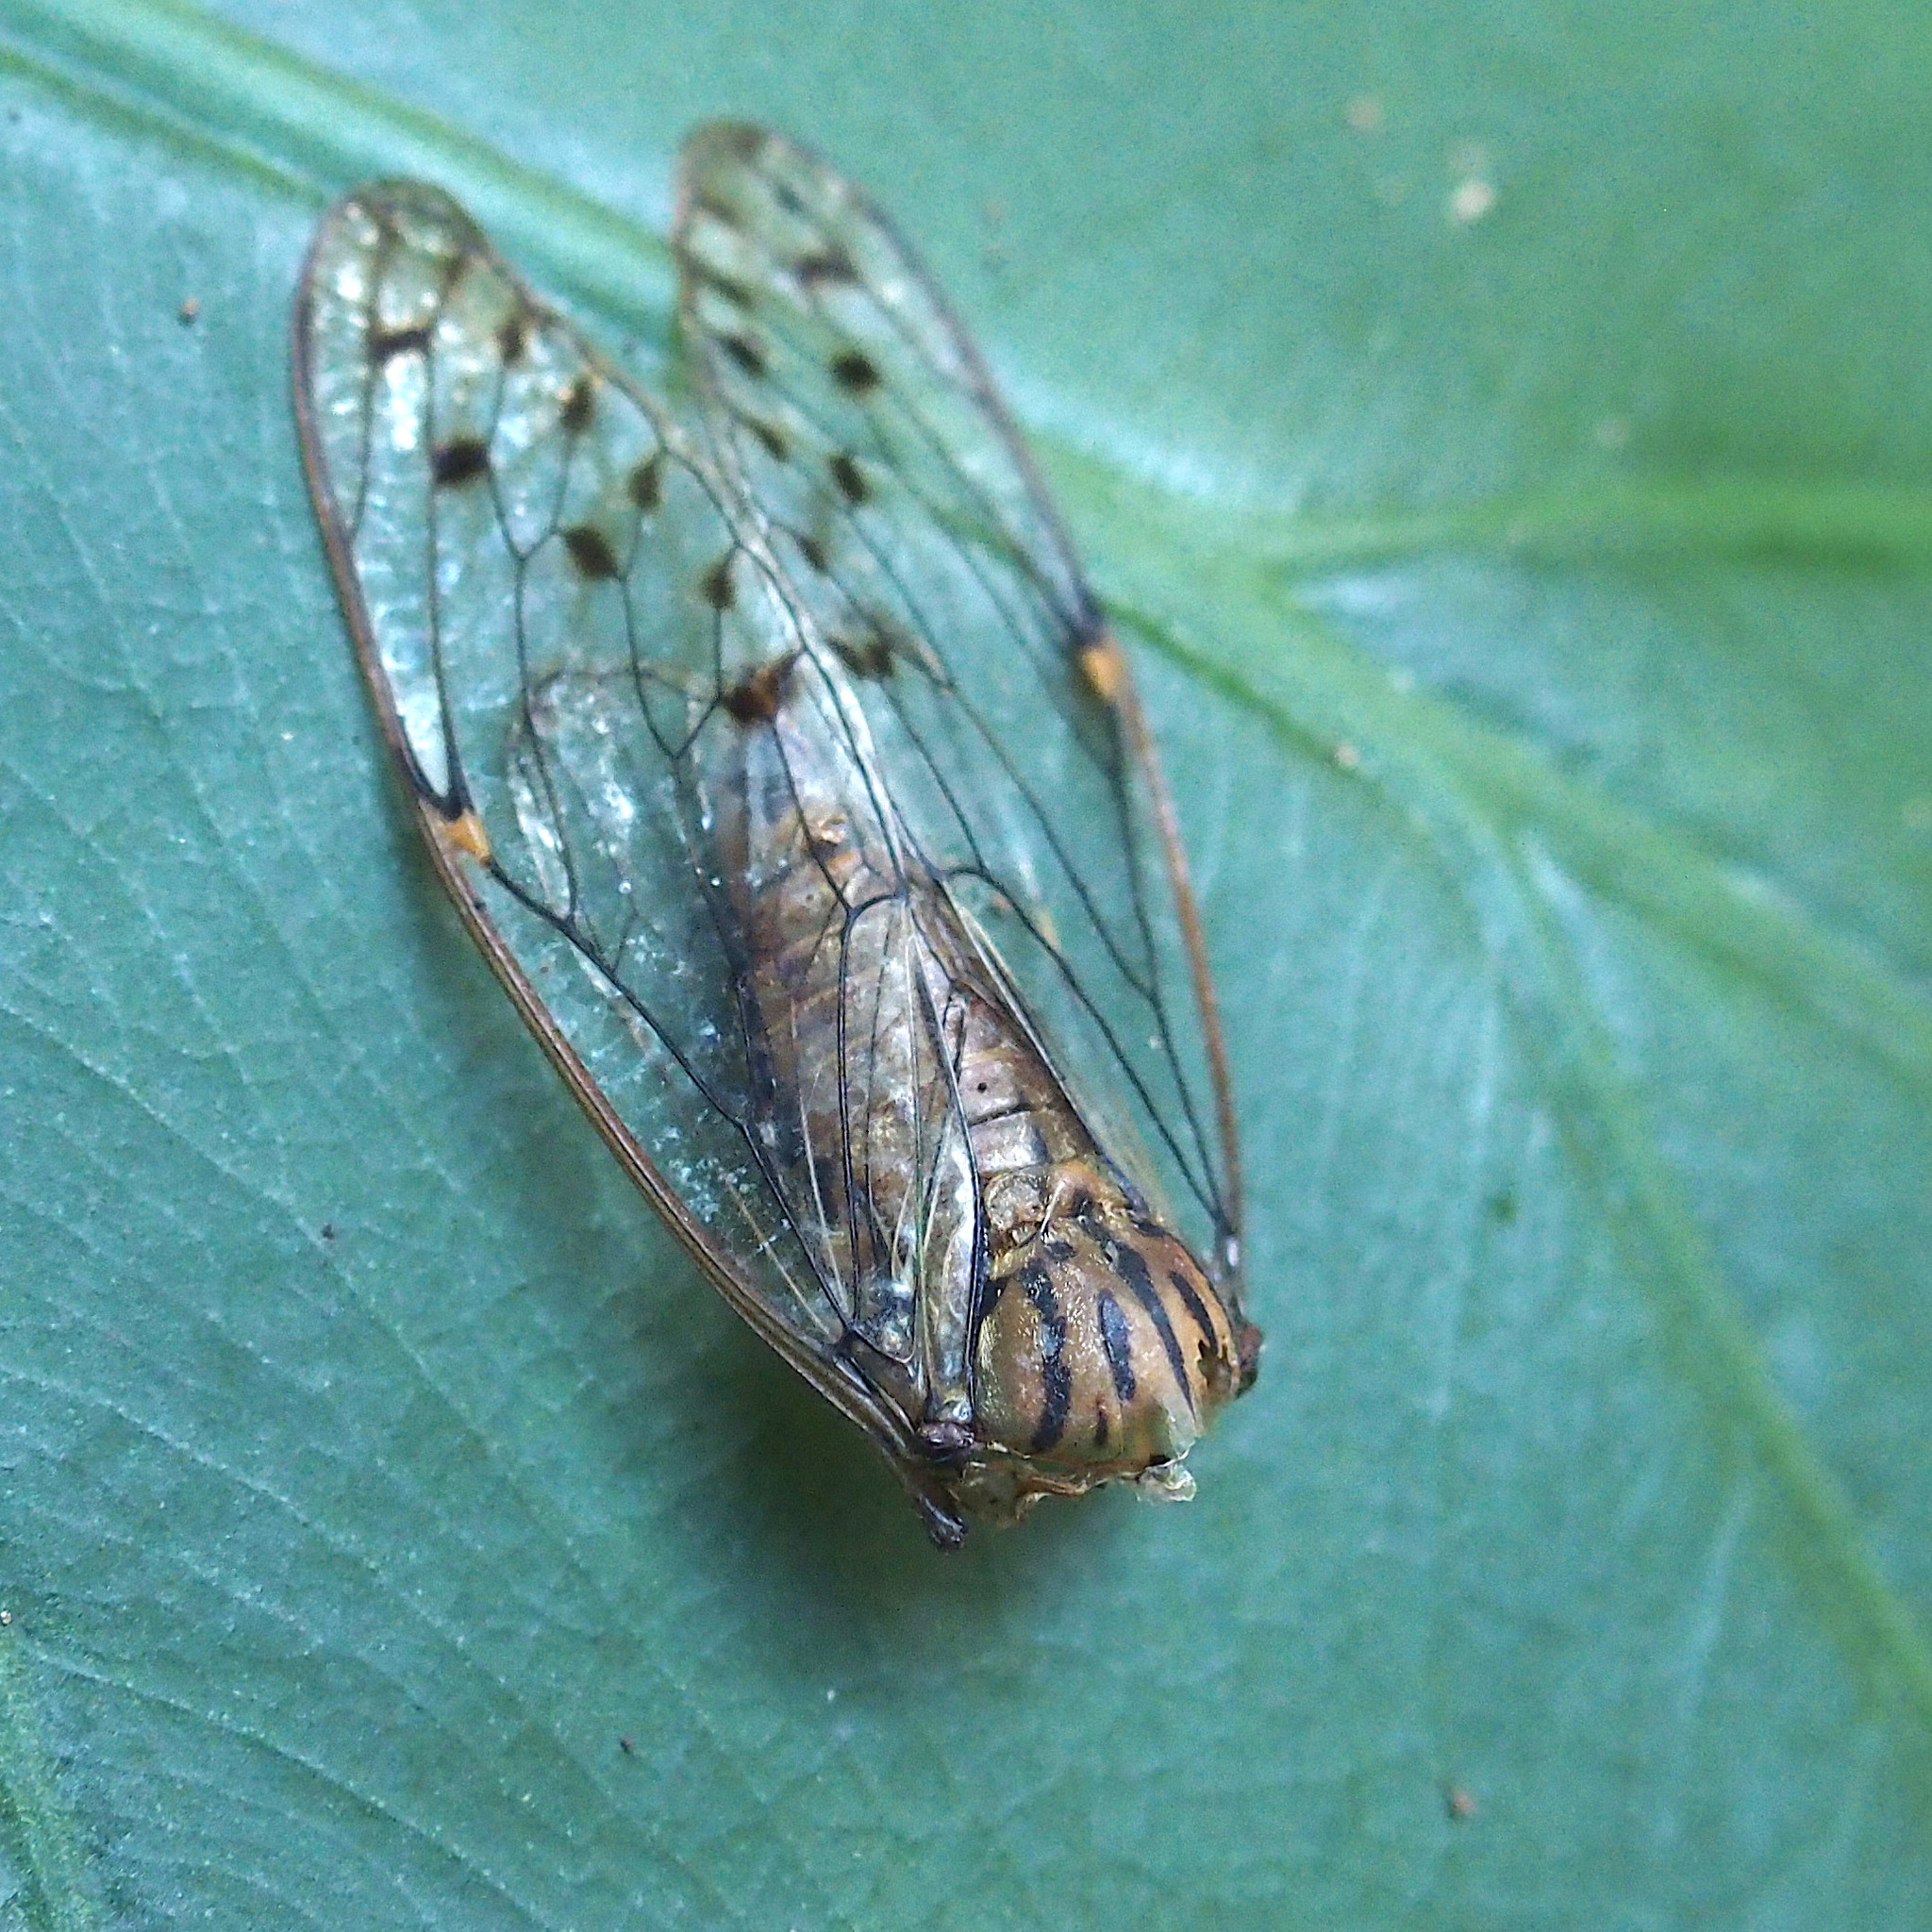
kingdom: Animalia
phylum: Arthropoda
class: Insecta
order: Hemiptera
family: Cicadidae
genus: Leptosemia
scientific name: Leptosemia sakaii
